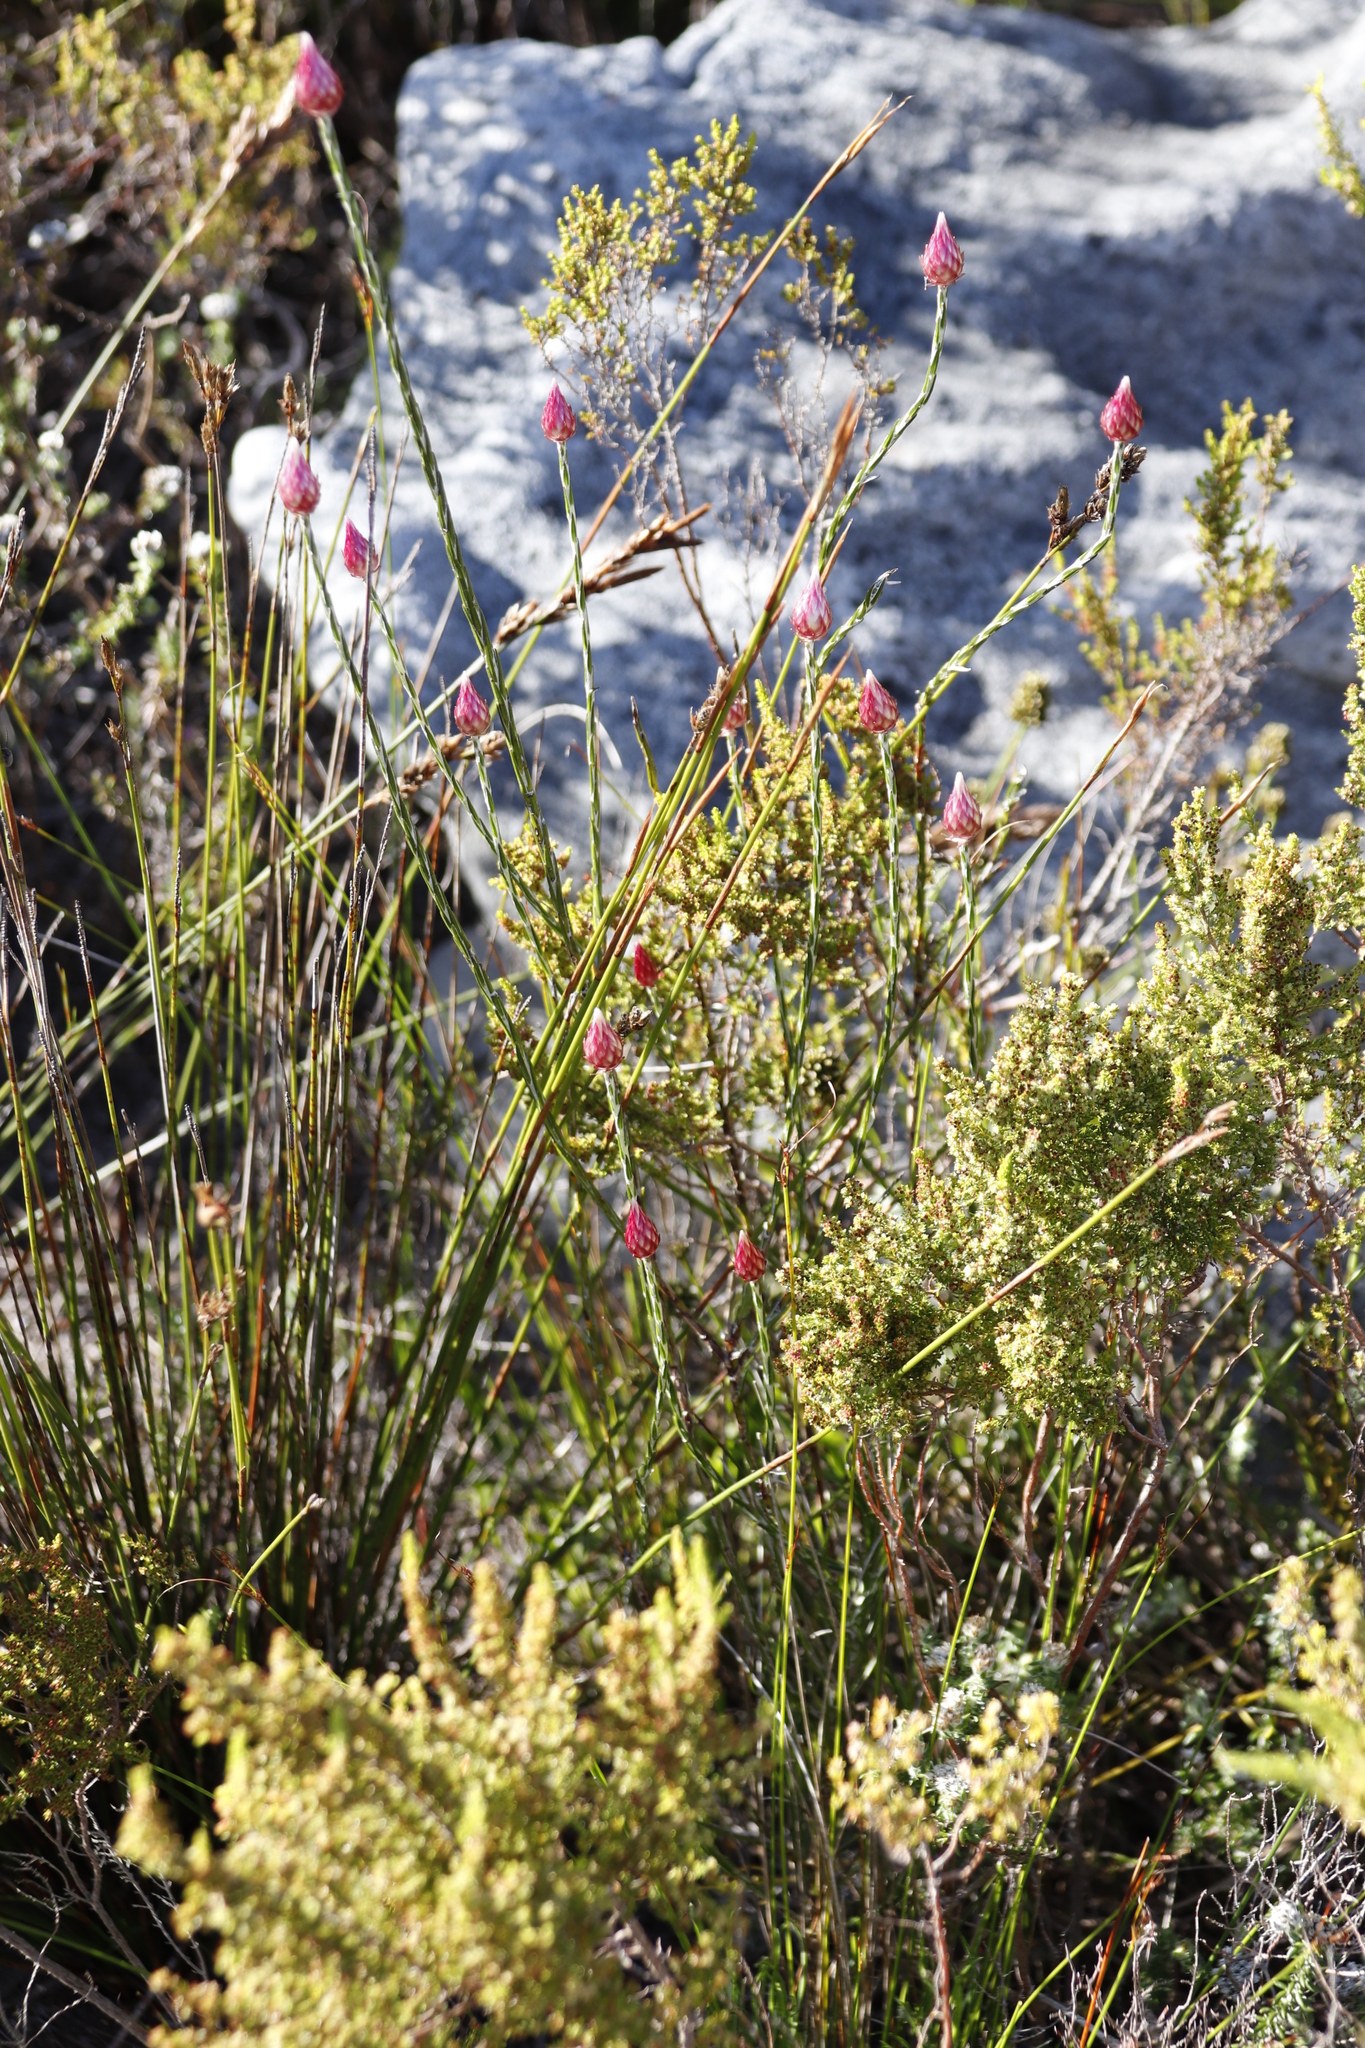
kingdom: Plantae
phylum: Tracheophyta
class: Magnoliopsida
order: Asterales
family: Asteraceae
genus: Edmondia
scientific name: Edmondia sesamoides
